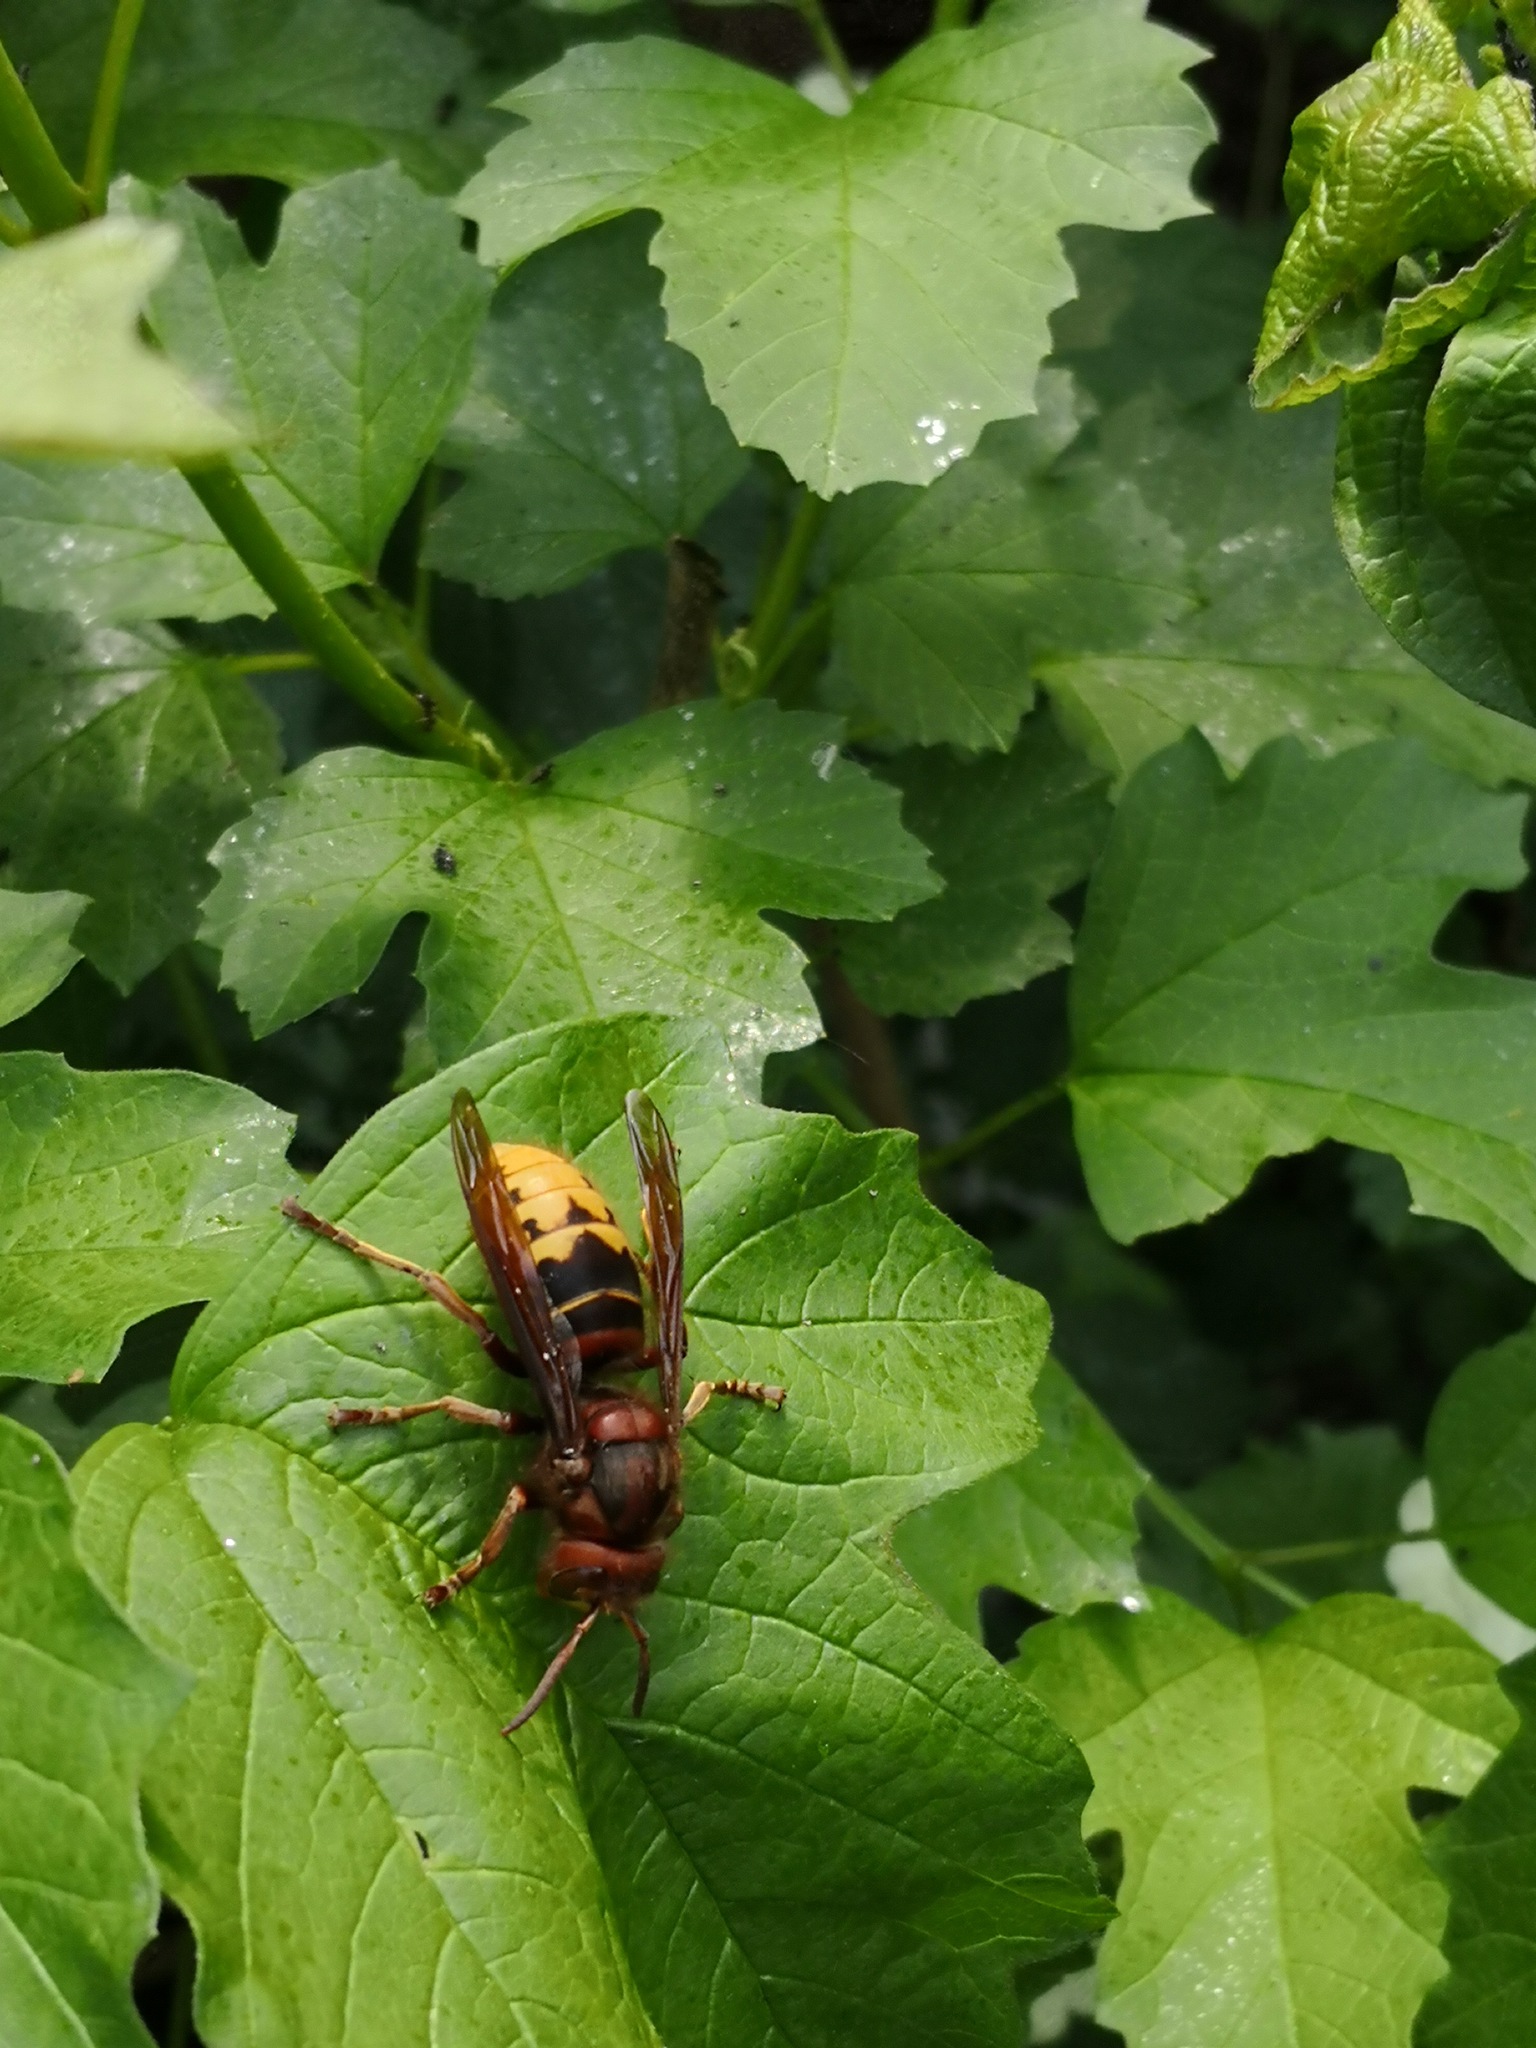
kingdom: Animalia
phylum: Arthropoda
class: Insecta
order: Hymenoptera
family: Vespidae
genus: Vespa
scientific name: Vespa crabro
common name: Hornet
